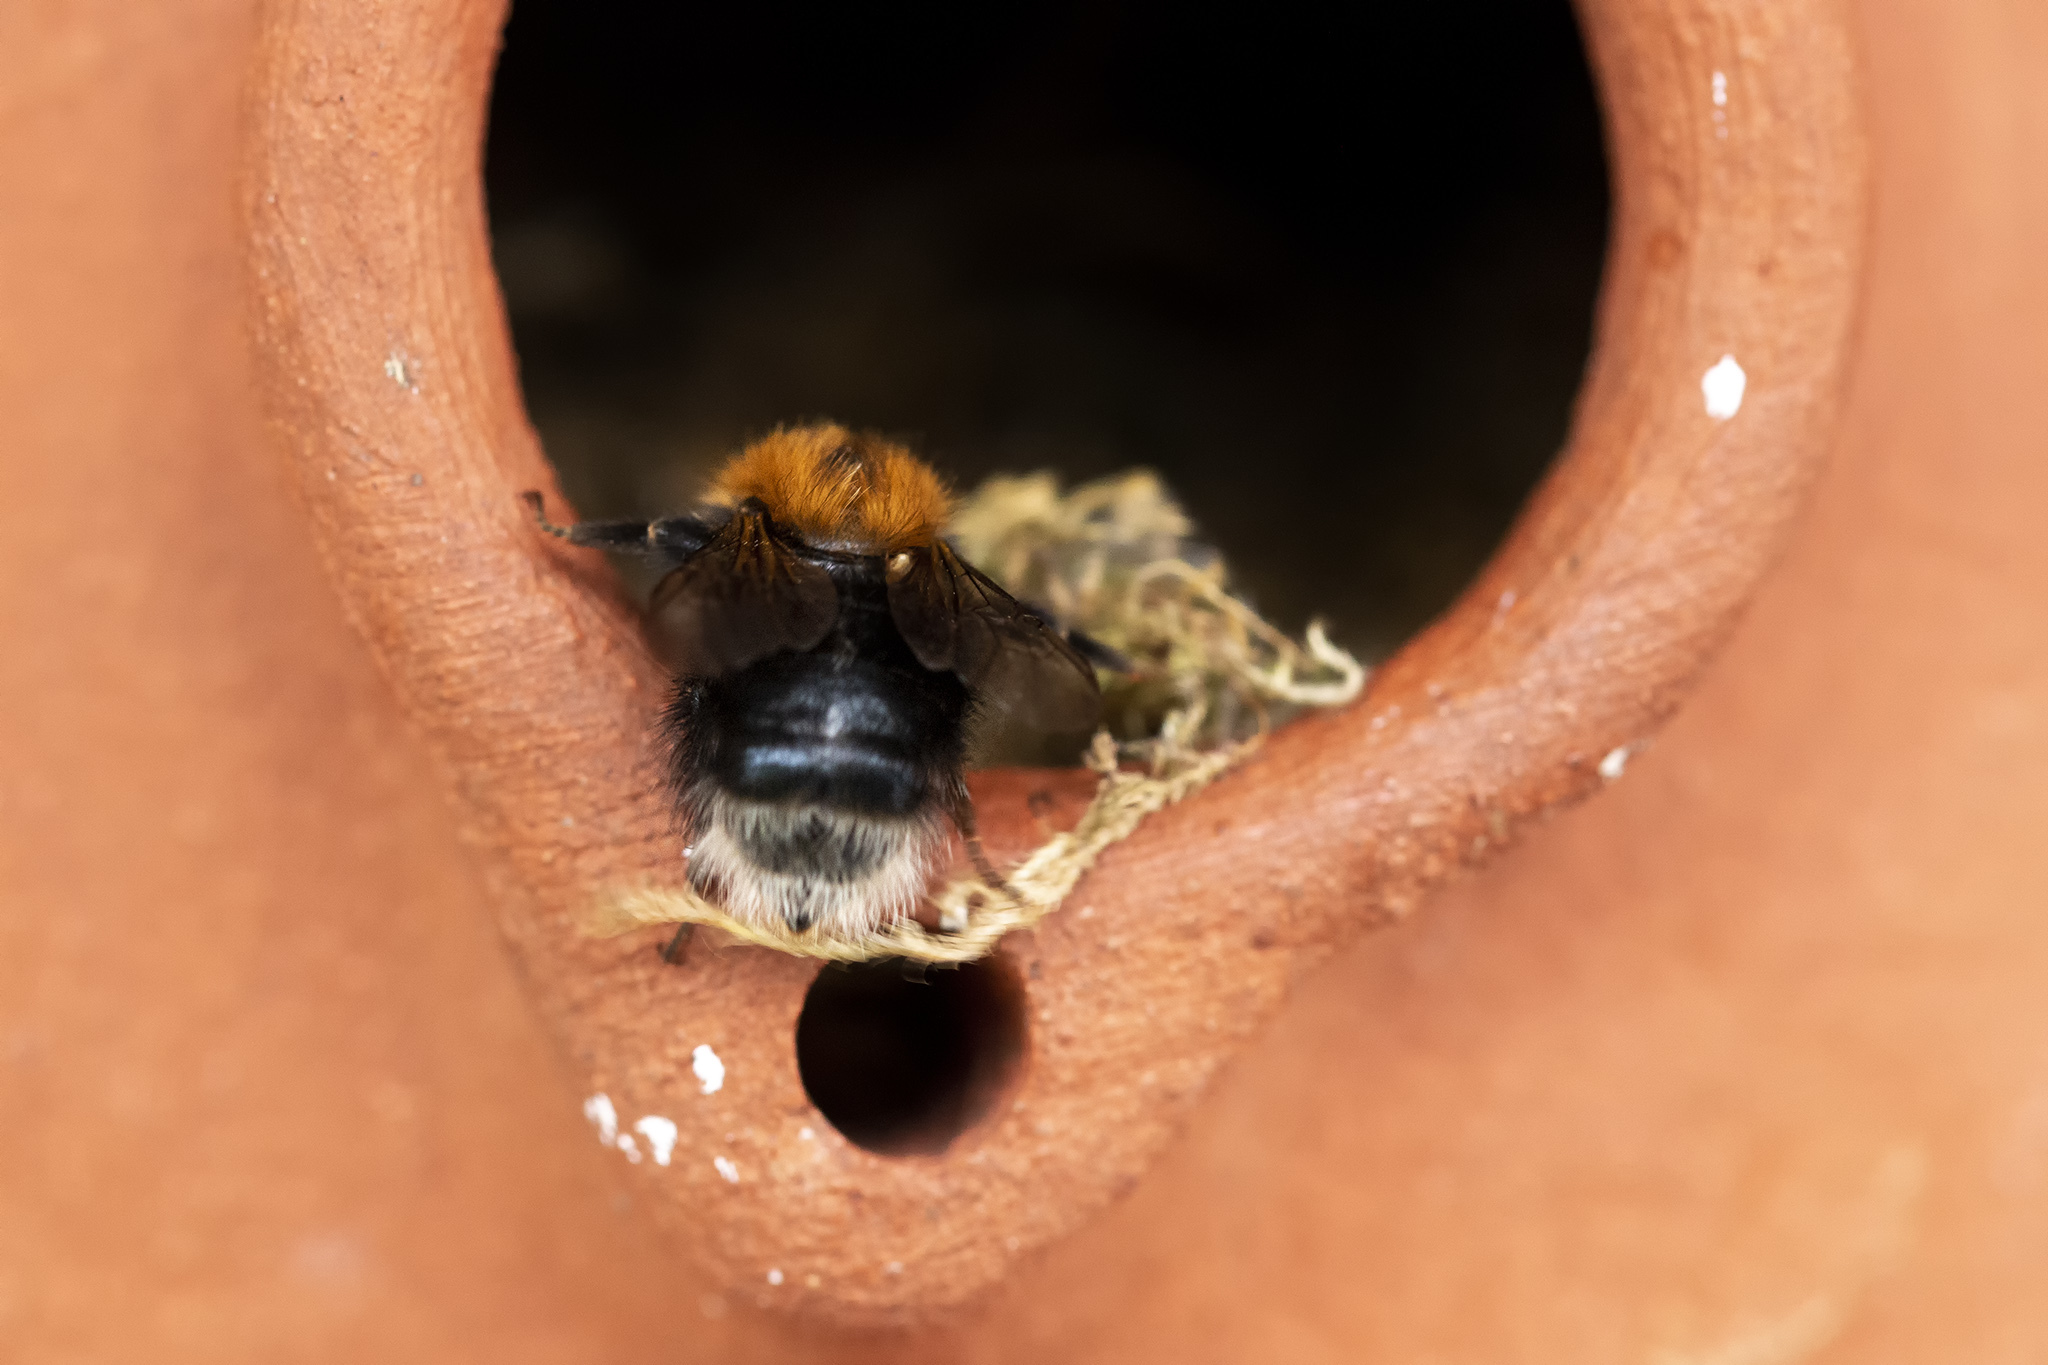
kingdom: Animalia
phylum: Arthropoda
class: Insecta
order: Hymenoptera
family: Apidae
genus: Bombus
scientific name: Bombus hypnorum
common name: New garden bumblebee
